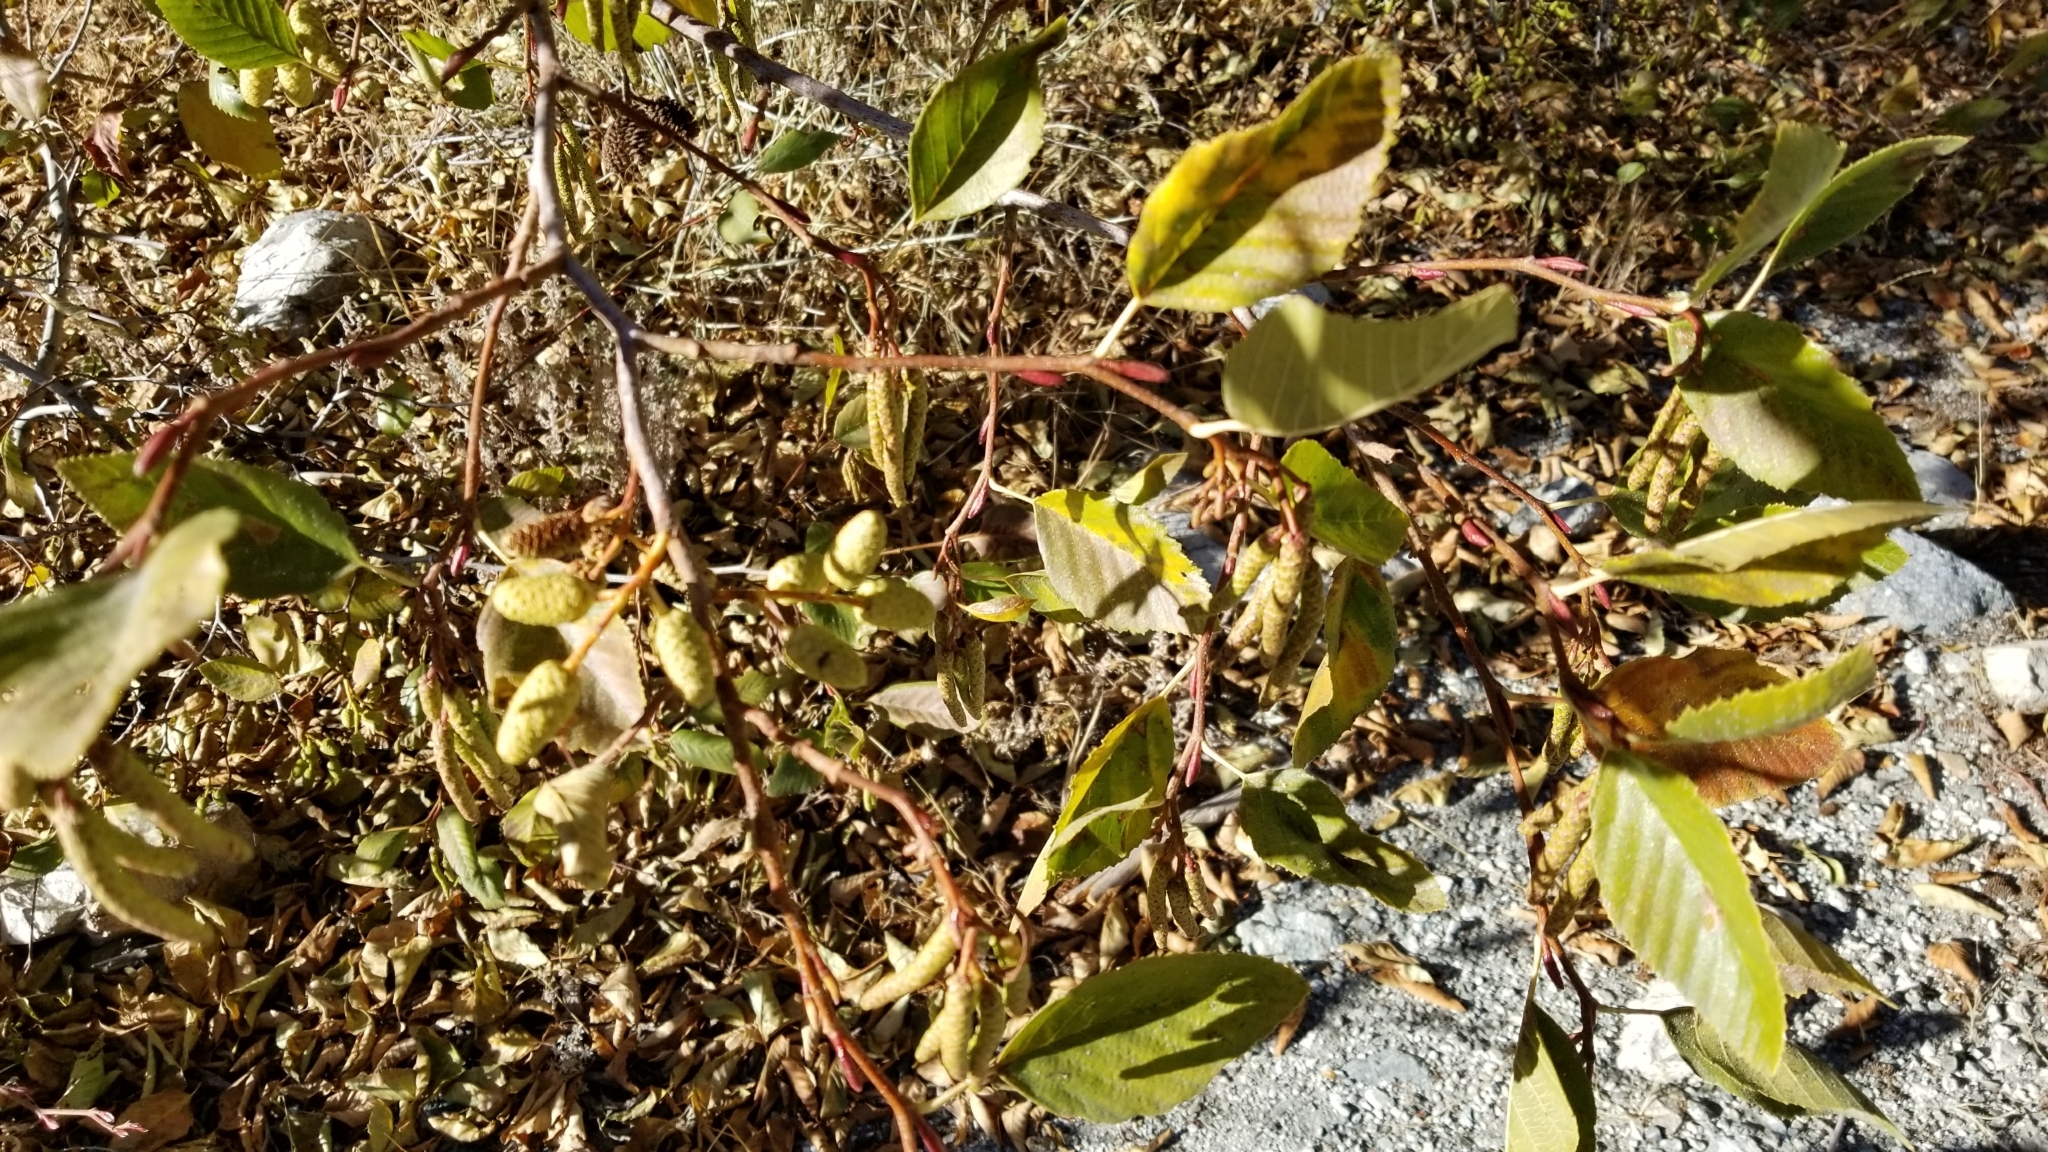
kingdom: Plantae
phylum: Tracheophyta
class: Magnoliopsida
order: Fagales
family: Betulaceae
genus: Alnus
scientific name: Alnus rhombifolia
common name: California alder
